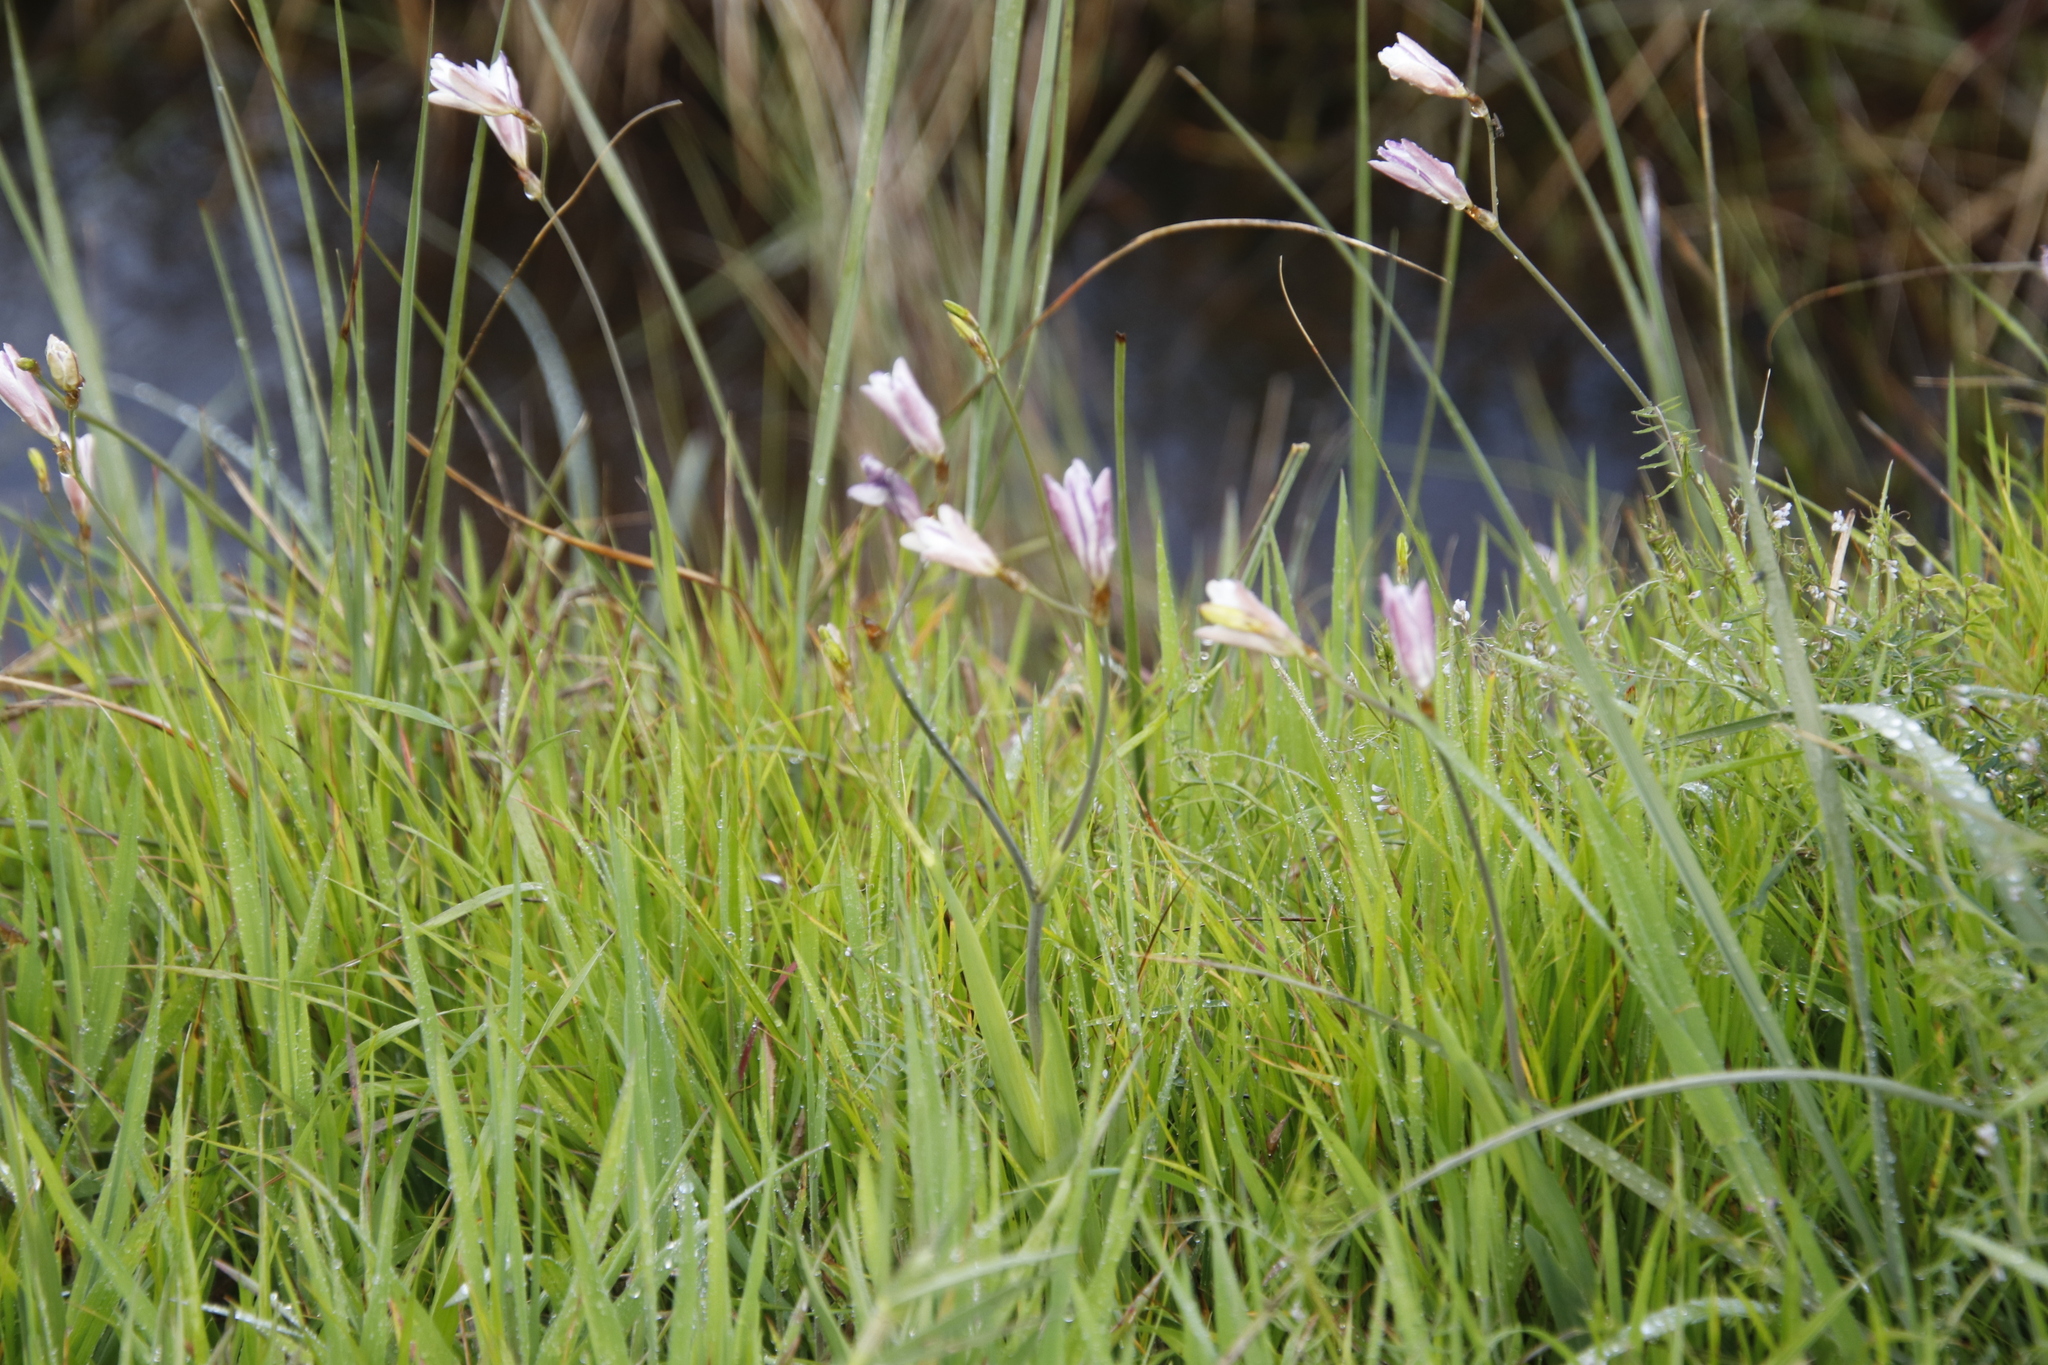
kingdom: Plantae
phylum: Tracheophyta
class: Liliopsida
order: Asparagales
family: Iridaceae
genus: Sparaxis
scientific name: Sparaxis bulbifera
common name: Harlequin-flower
